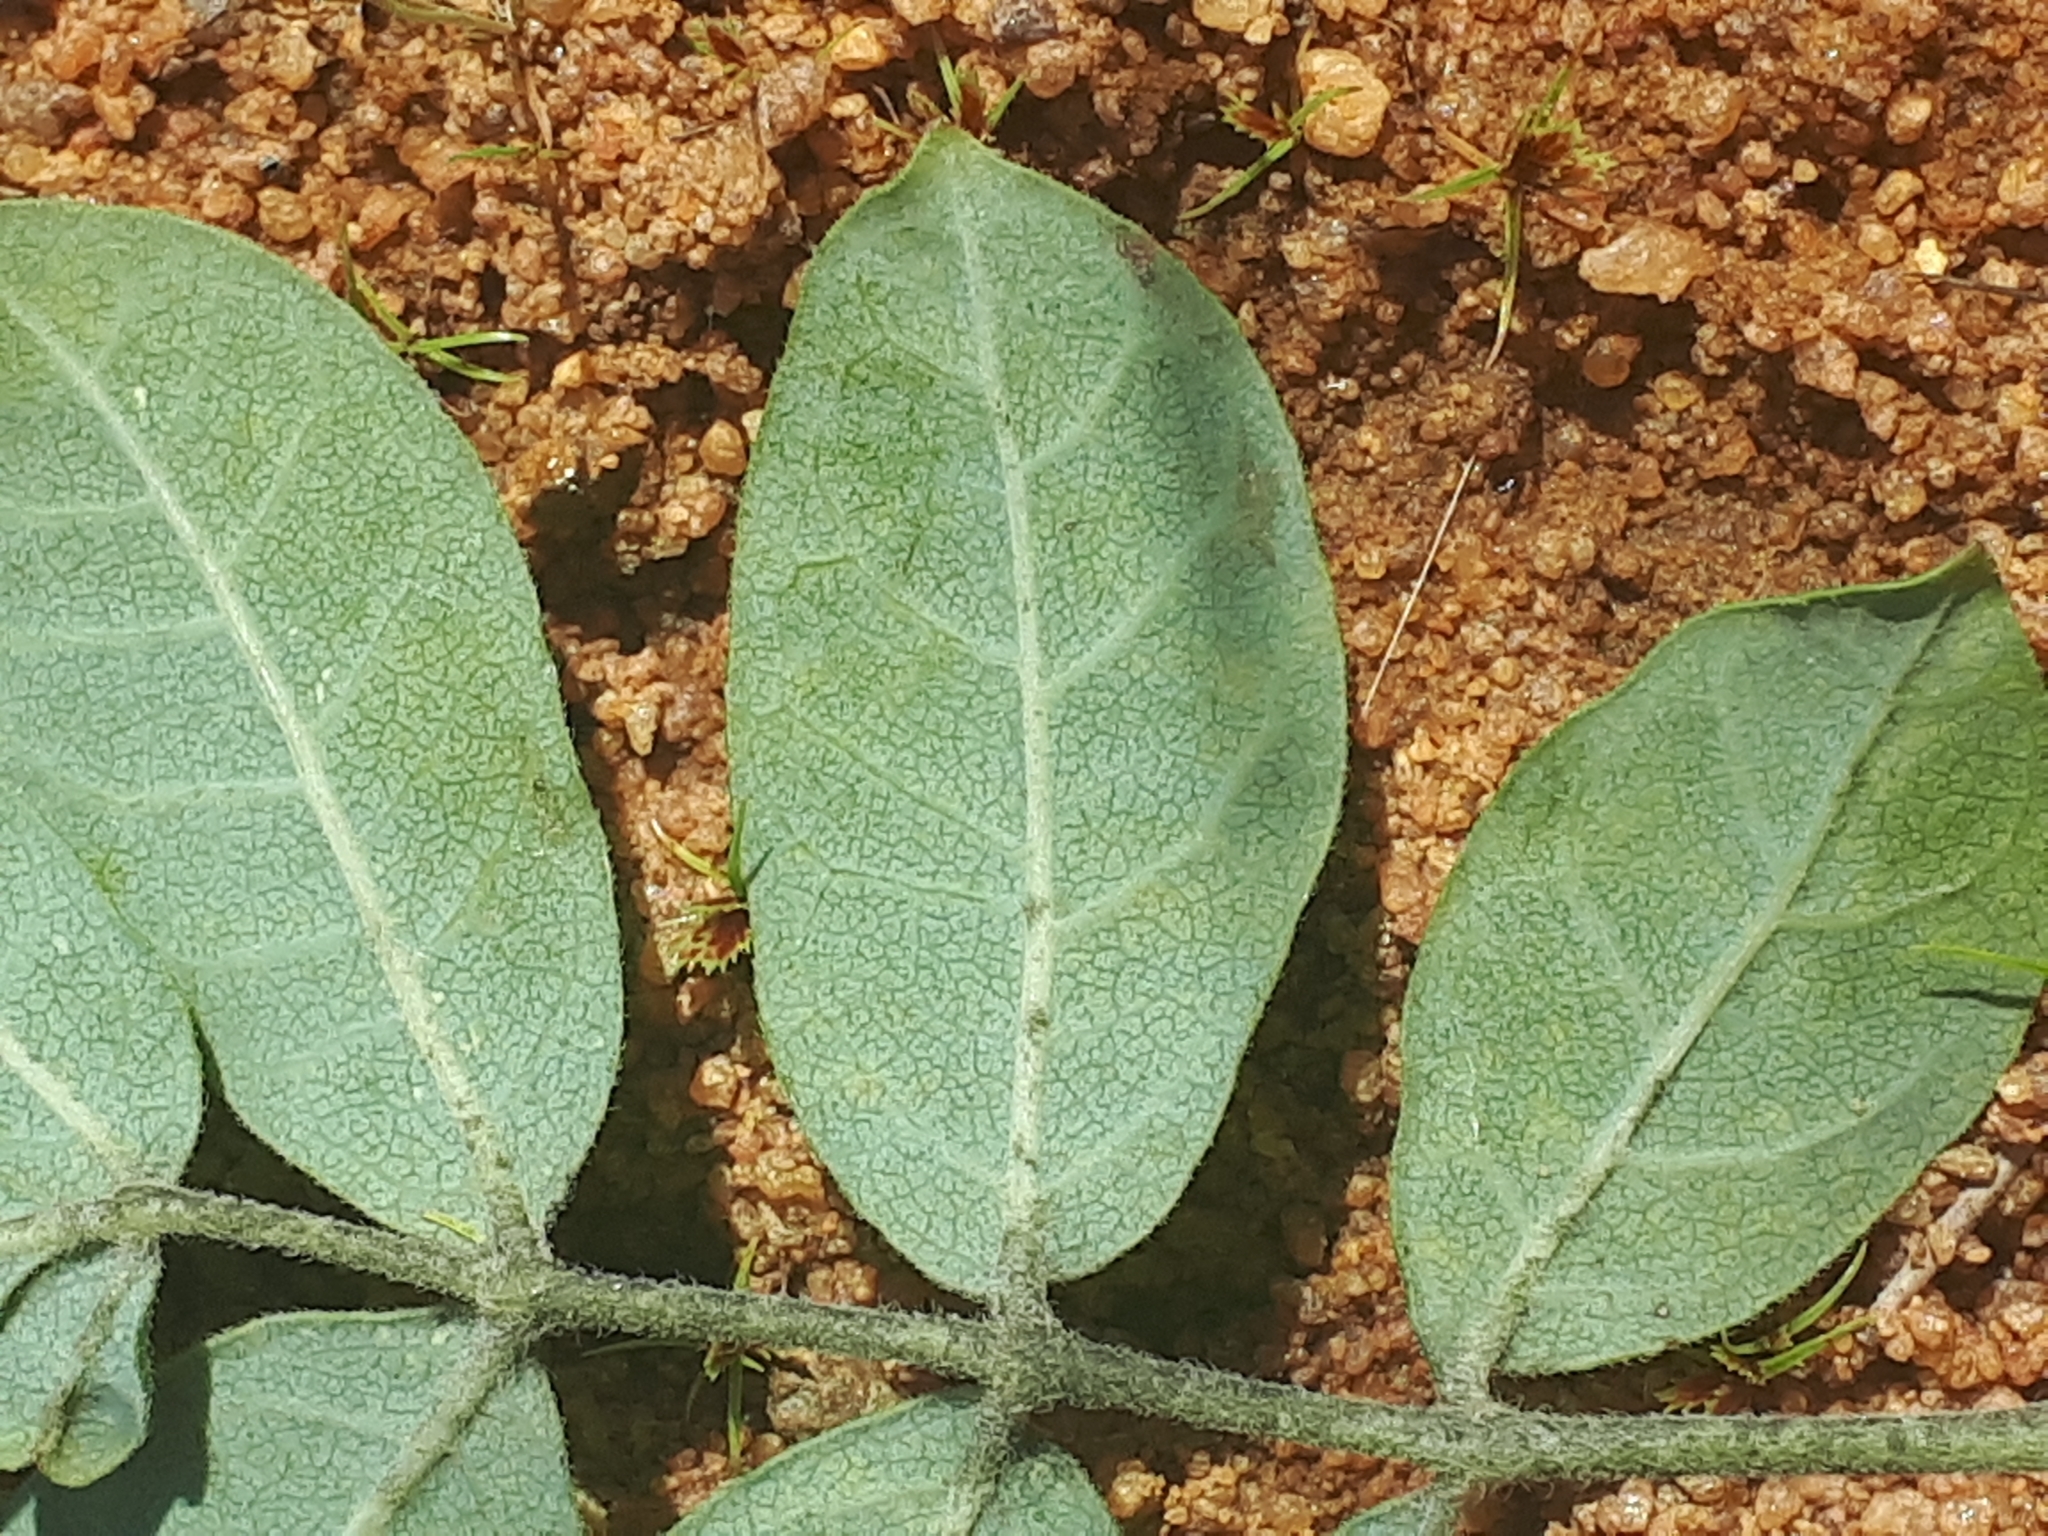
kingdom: Plantae
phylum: Tracheophyta
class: Magnoliopsida
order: Sapindales
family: Burseraceae
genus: Commiphora
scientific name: Commiphora mollis
